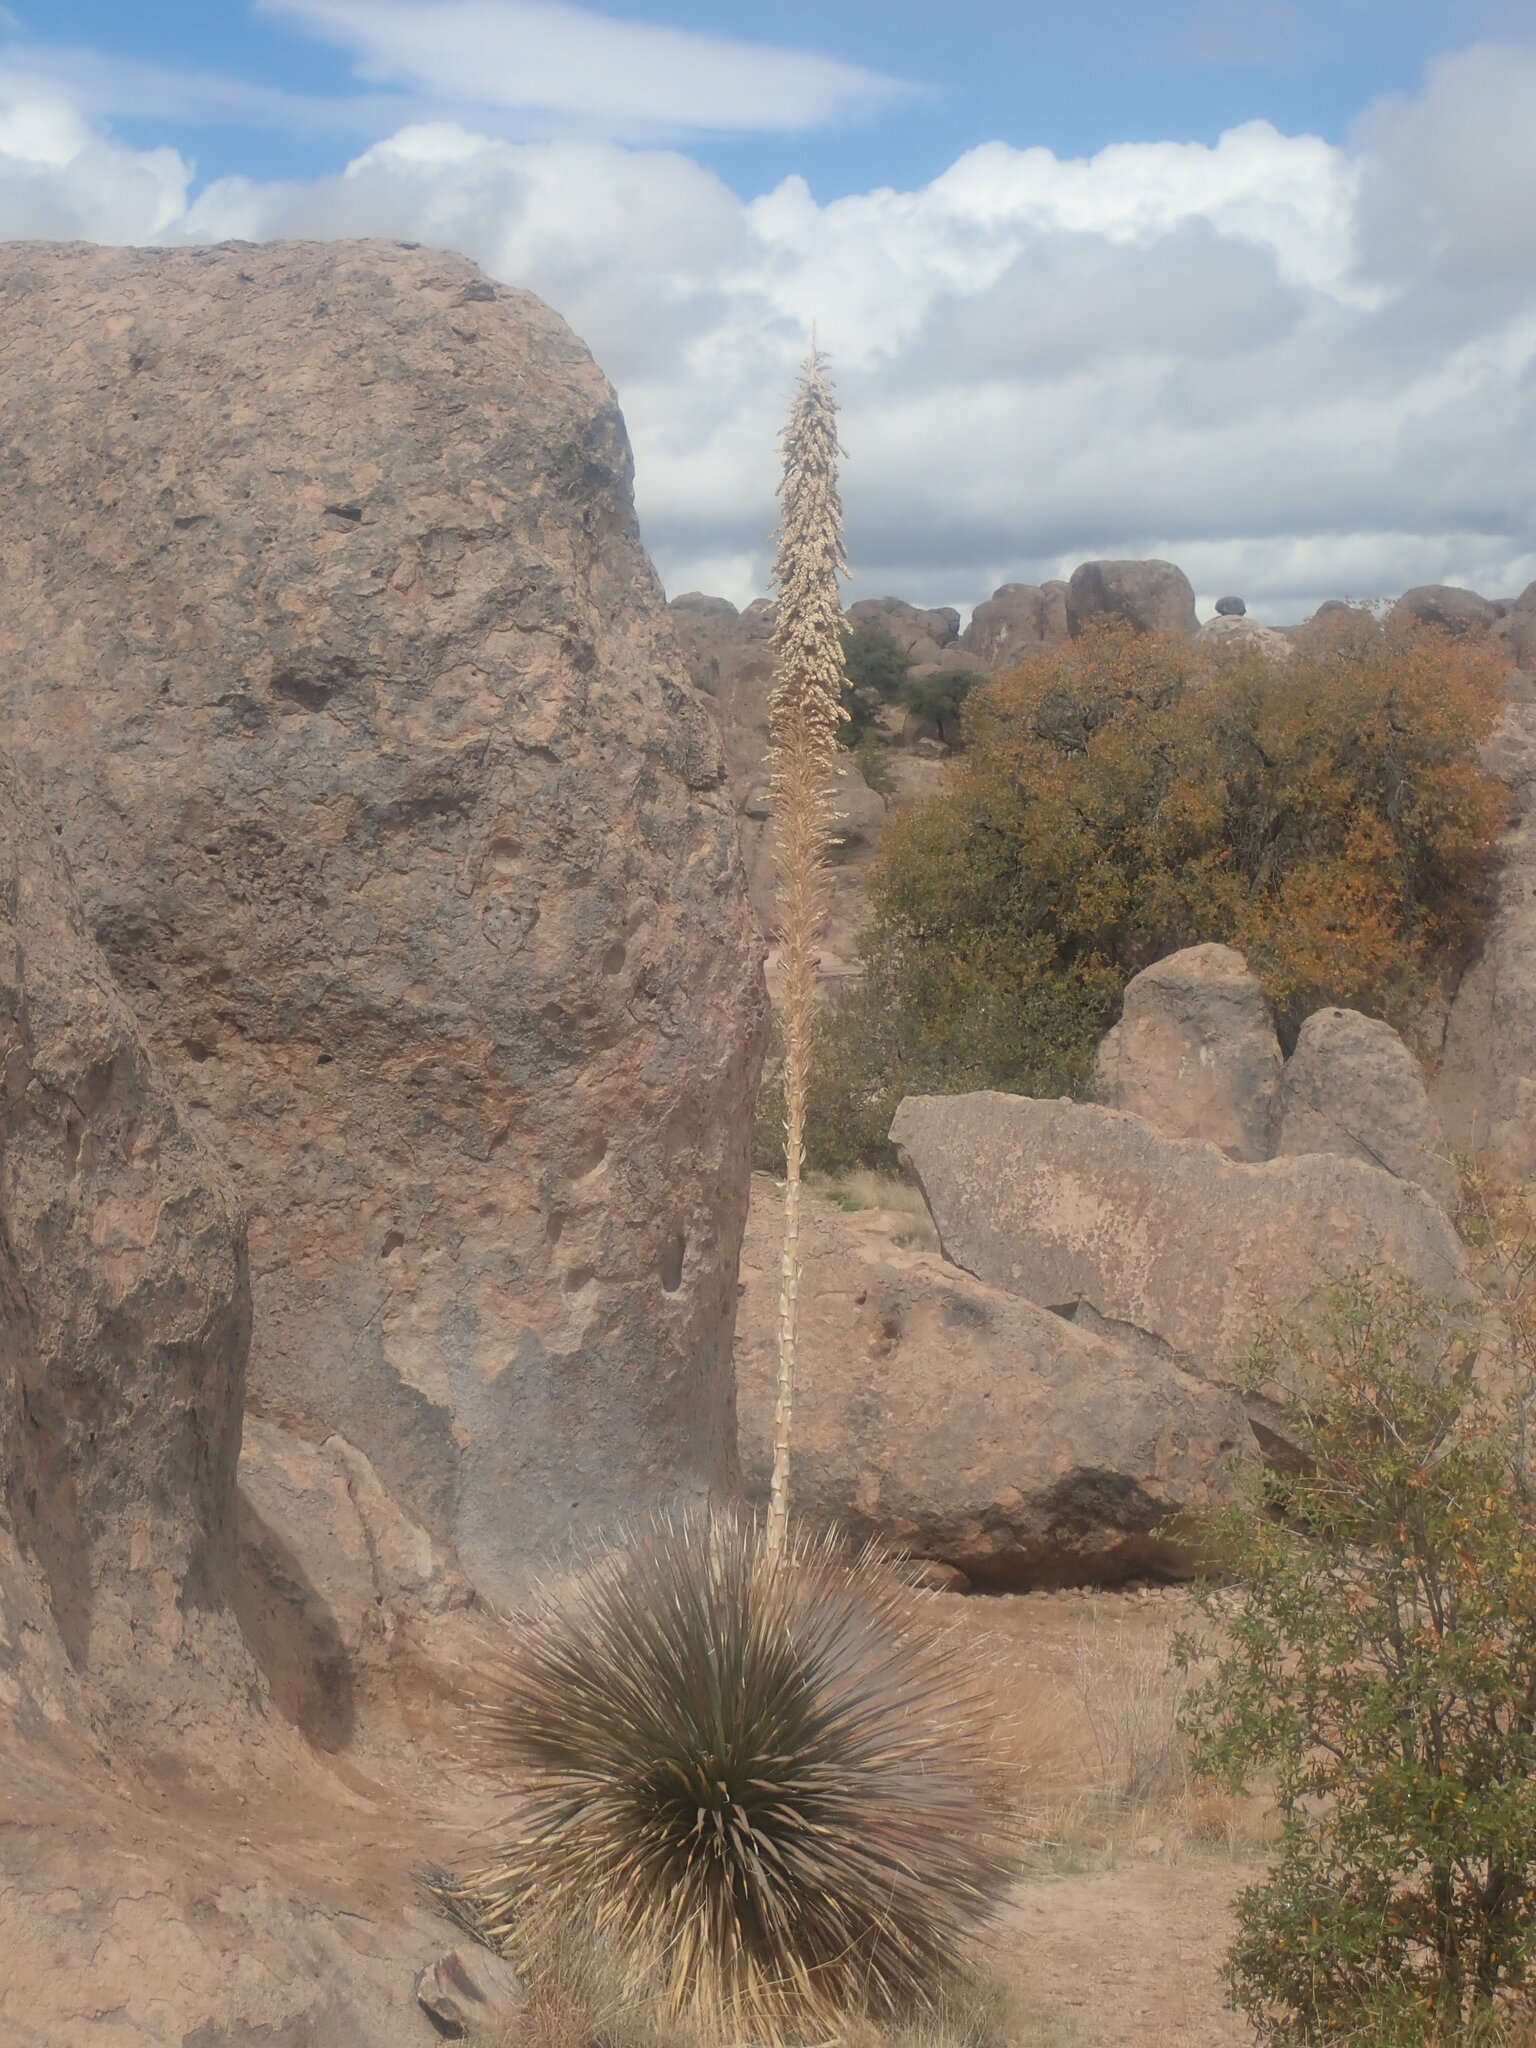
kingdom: Plantae
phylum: Tracheophyta
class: Liliopsida
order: Asparagales
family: Asparagaceae
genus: Dasylirion
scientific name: Dasylirion wheeleri
